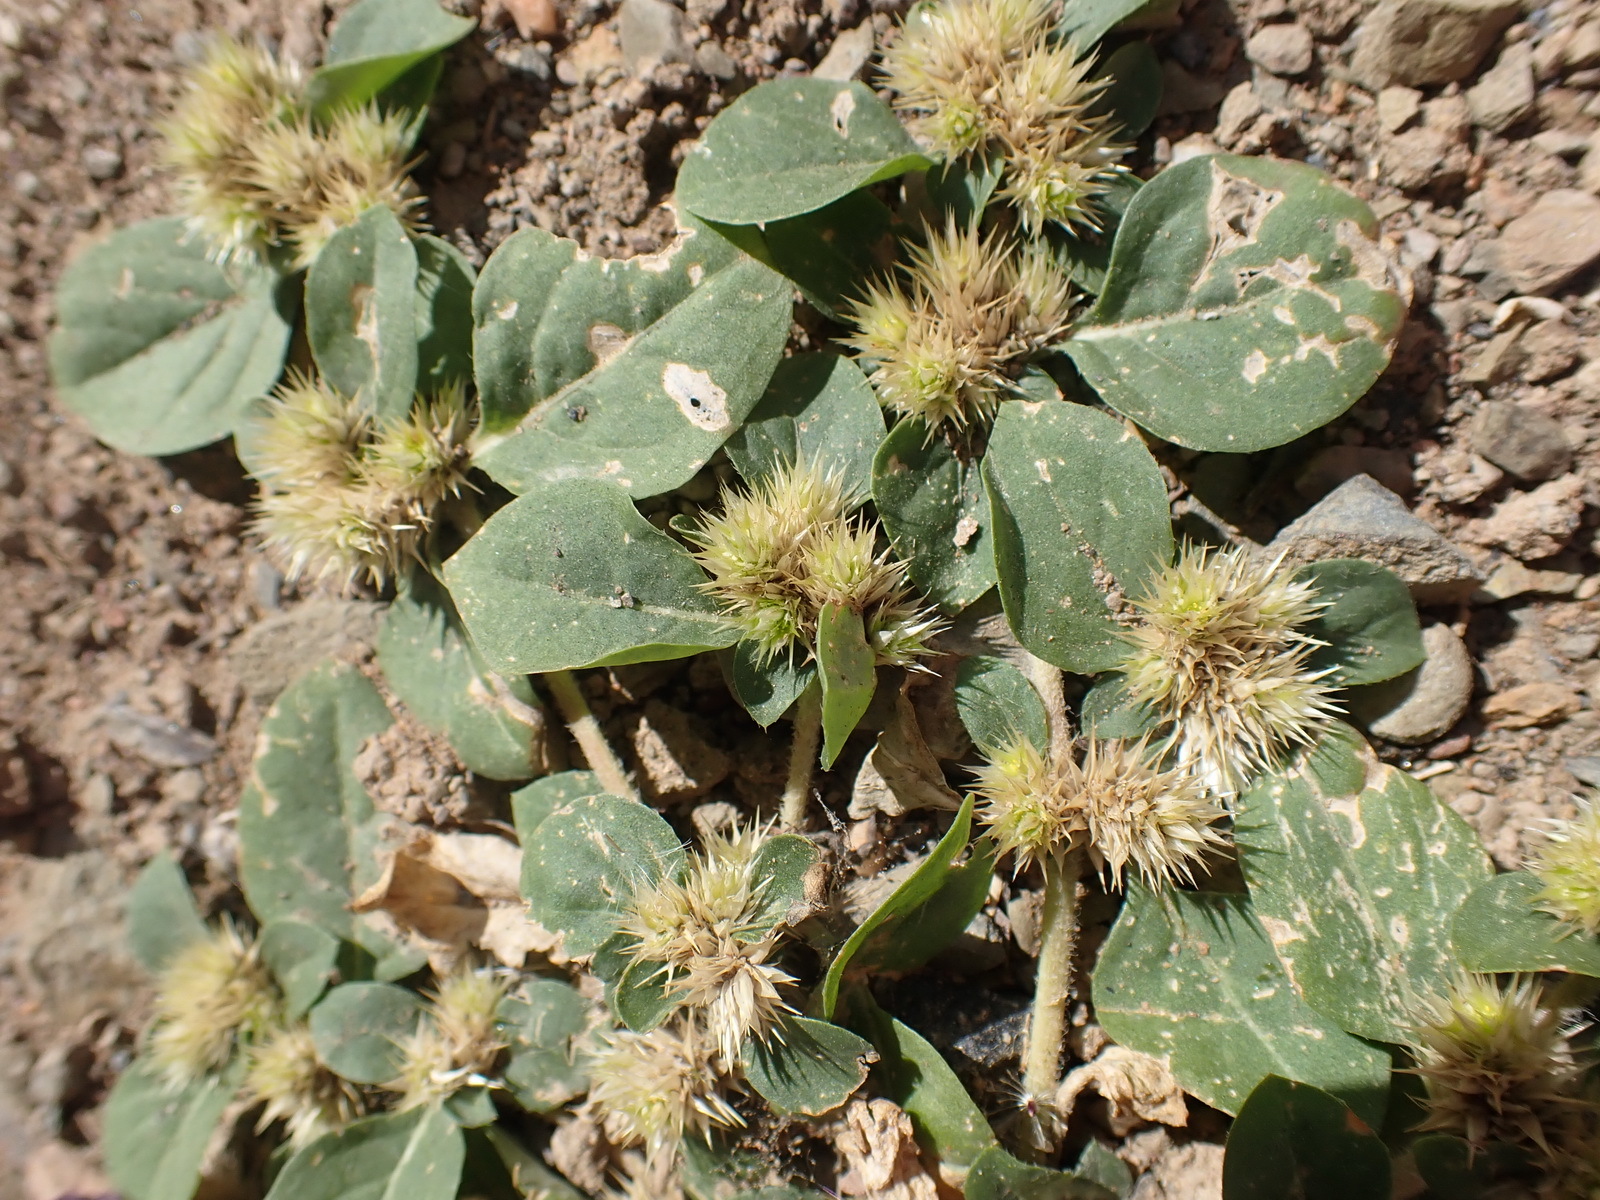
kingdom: Plantae
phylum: Tracheophyta
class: Magnoliopsida
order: Caryophyllales
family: Amaranthaceae
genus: Alternanthera
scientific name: Alternanthera pungens
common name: Khakiweed
